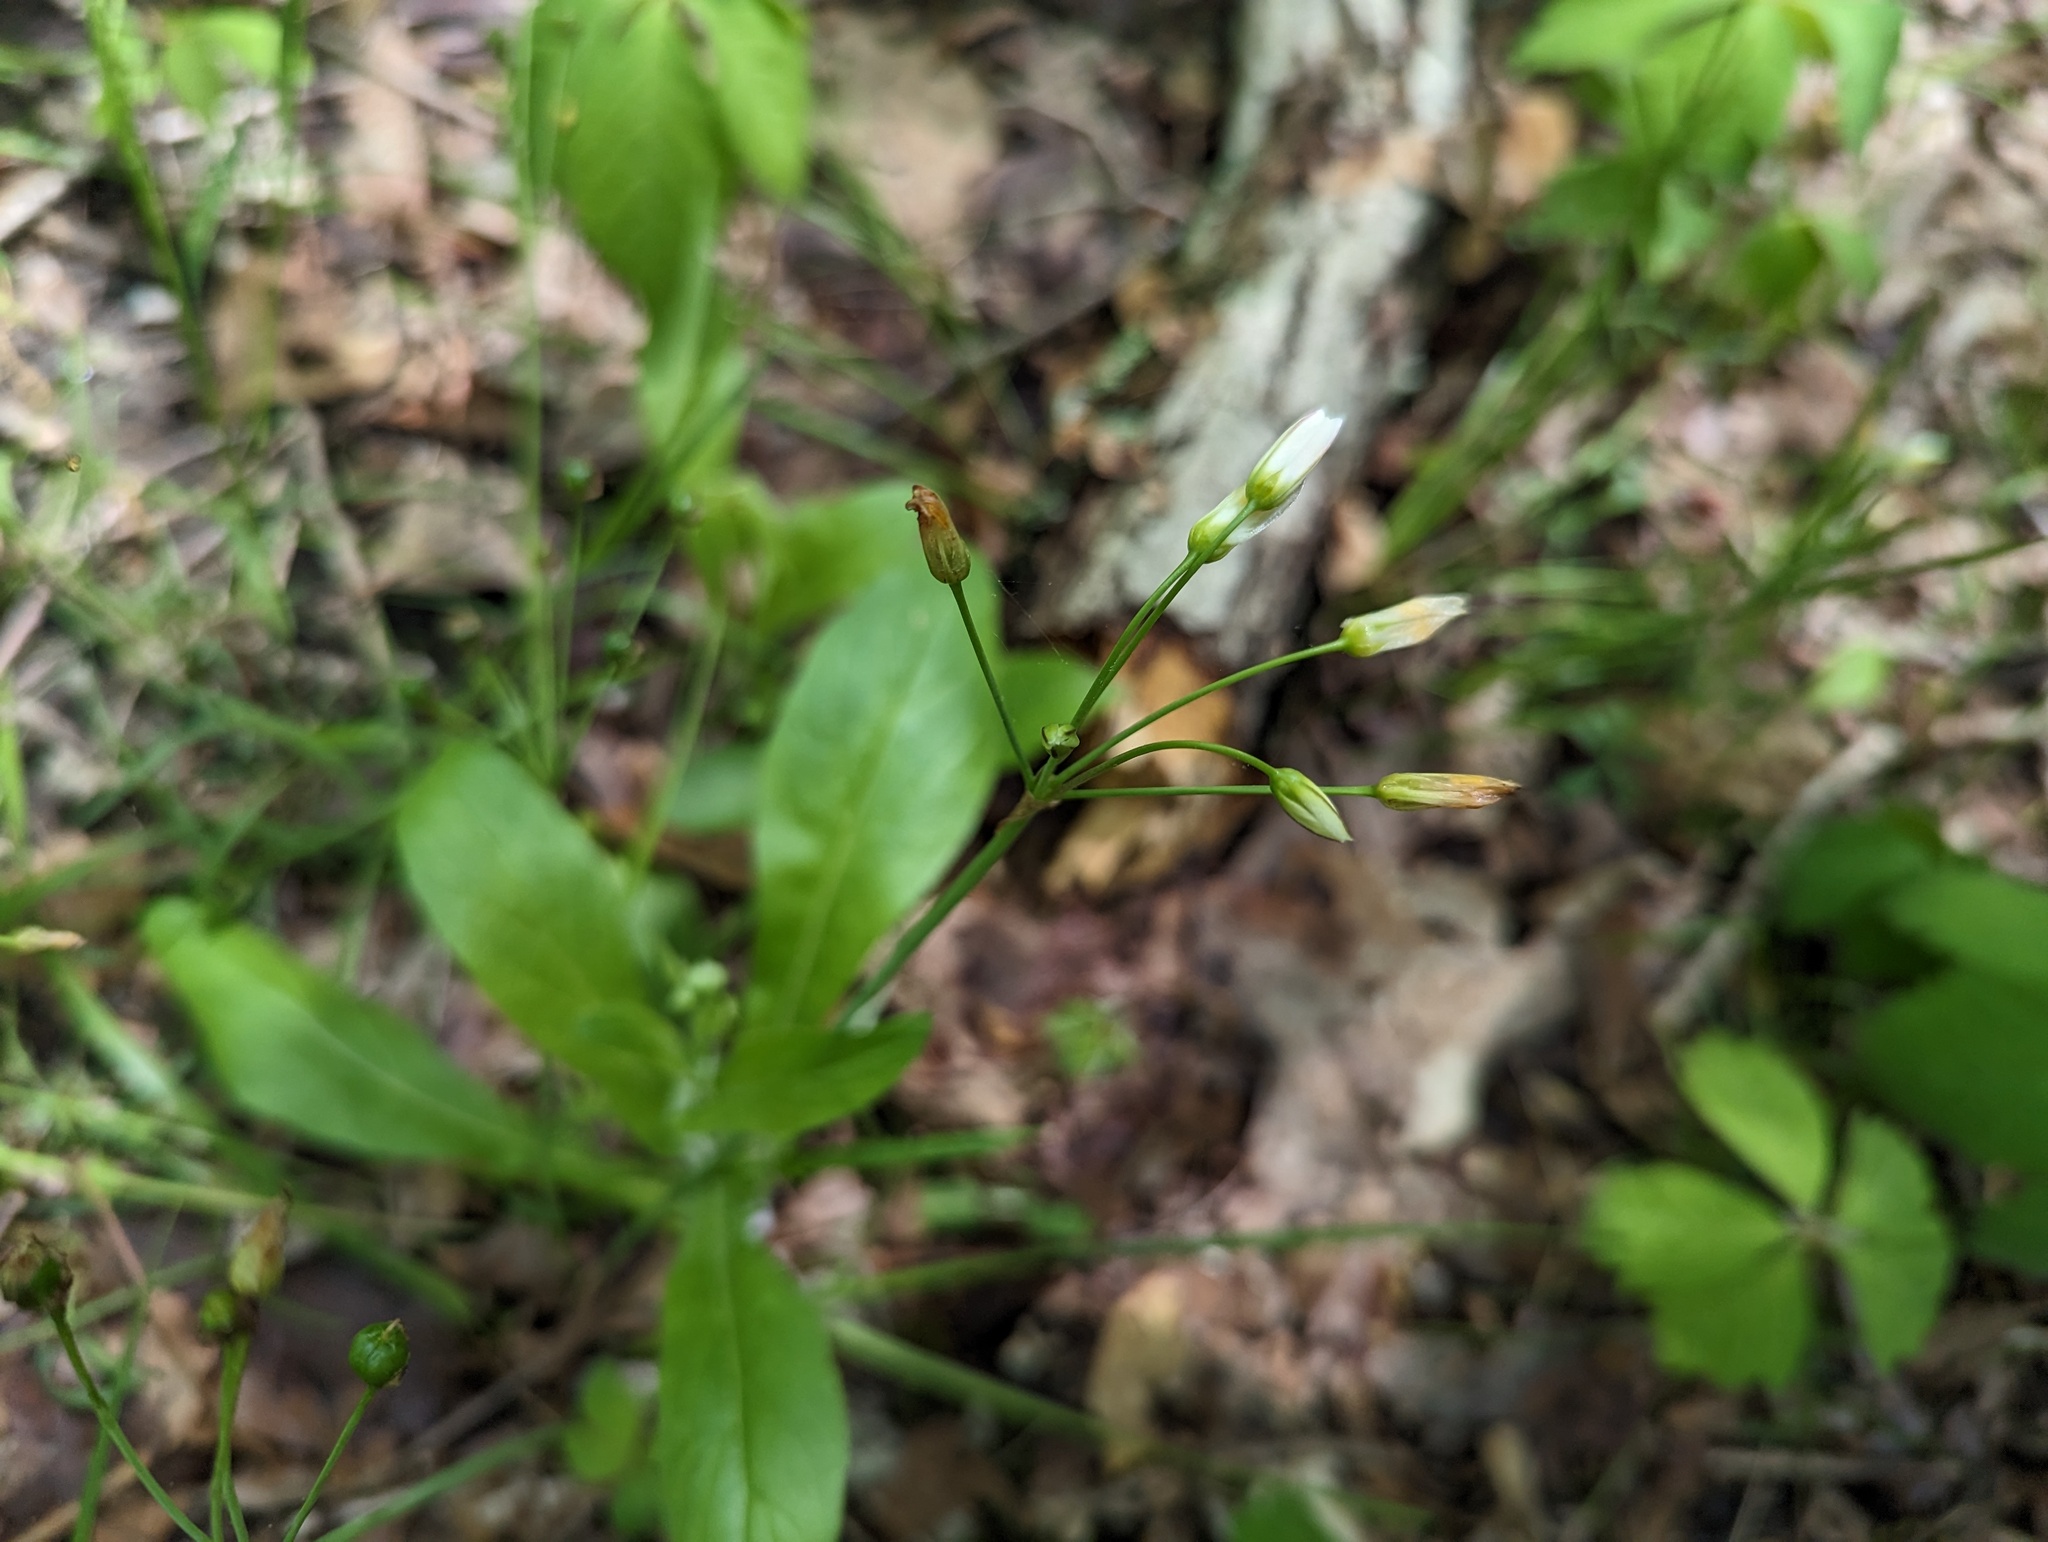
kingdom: Plantae
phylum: Tracheophyta
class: Liliopsida
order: Asparagales
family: Amaryllidaceae
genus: Nothoscordum
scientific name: Nothoscordum bivalve
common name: Crow-poison
